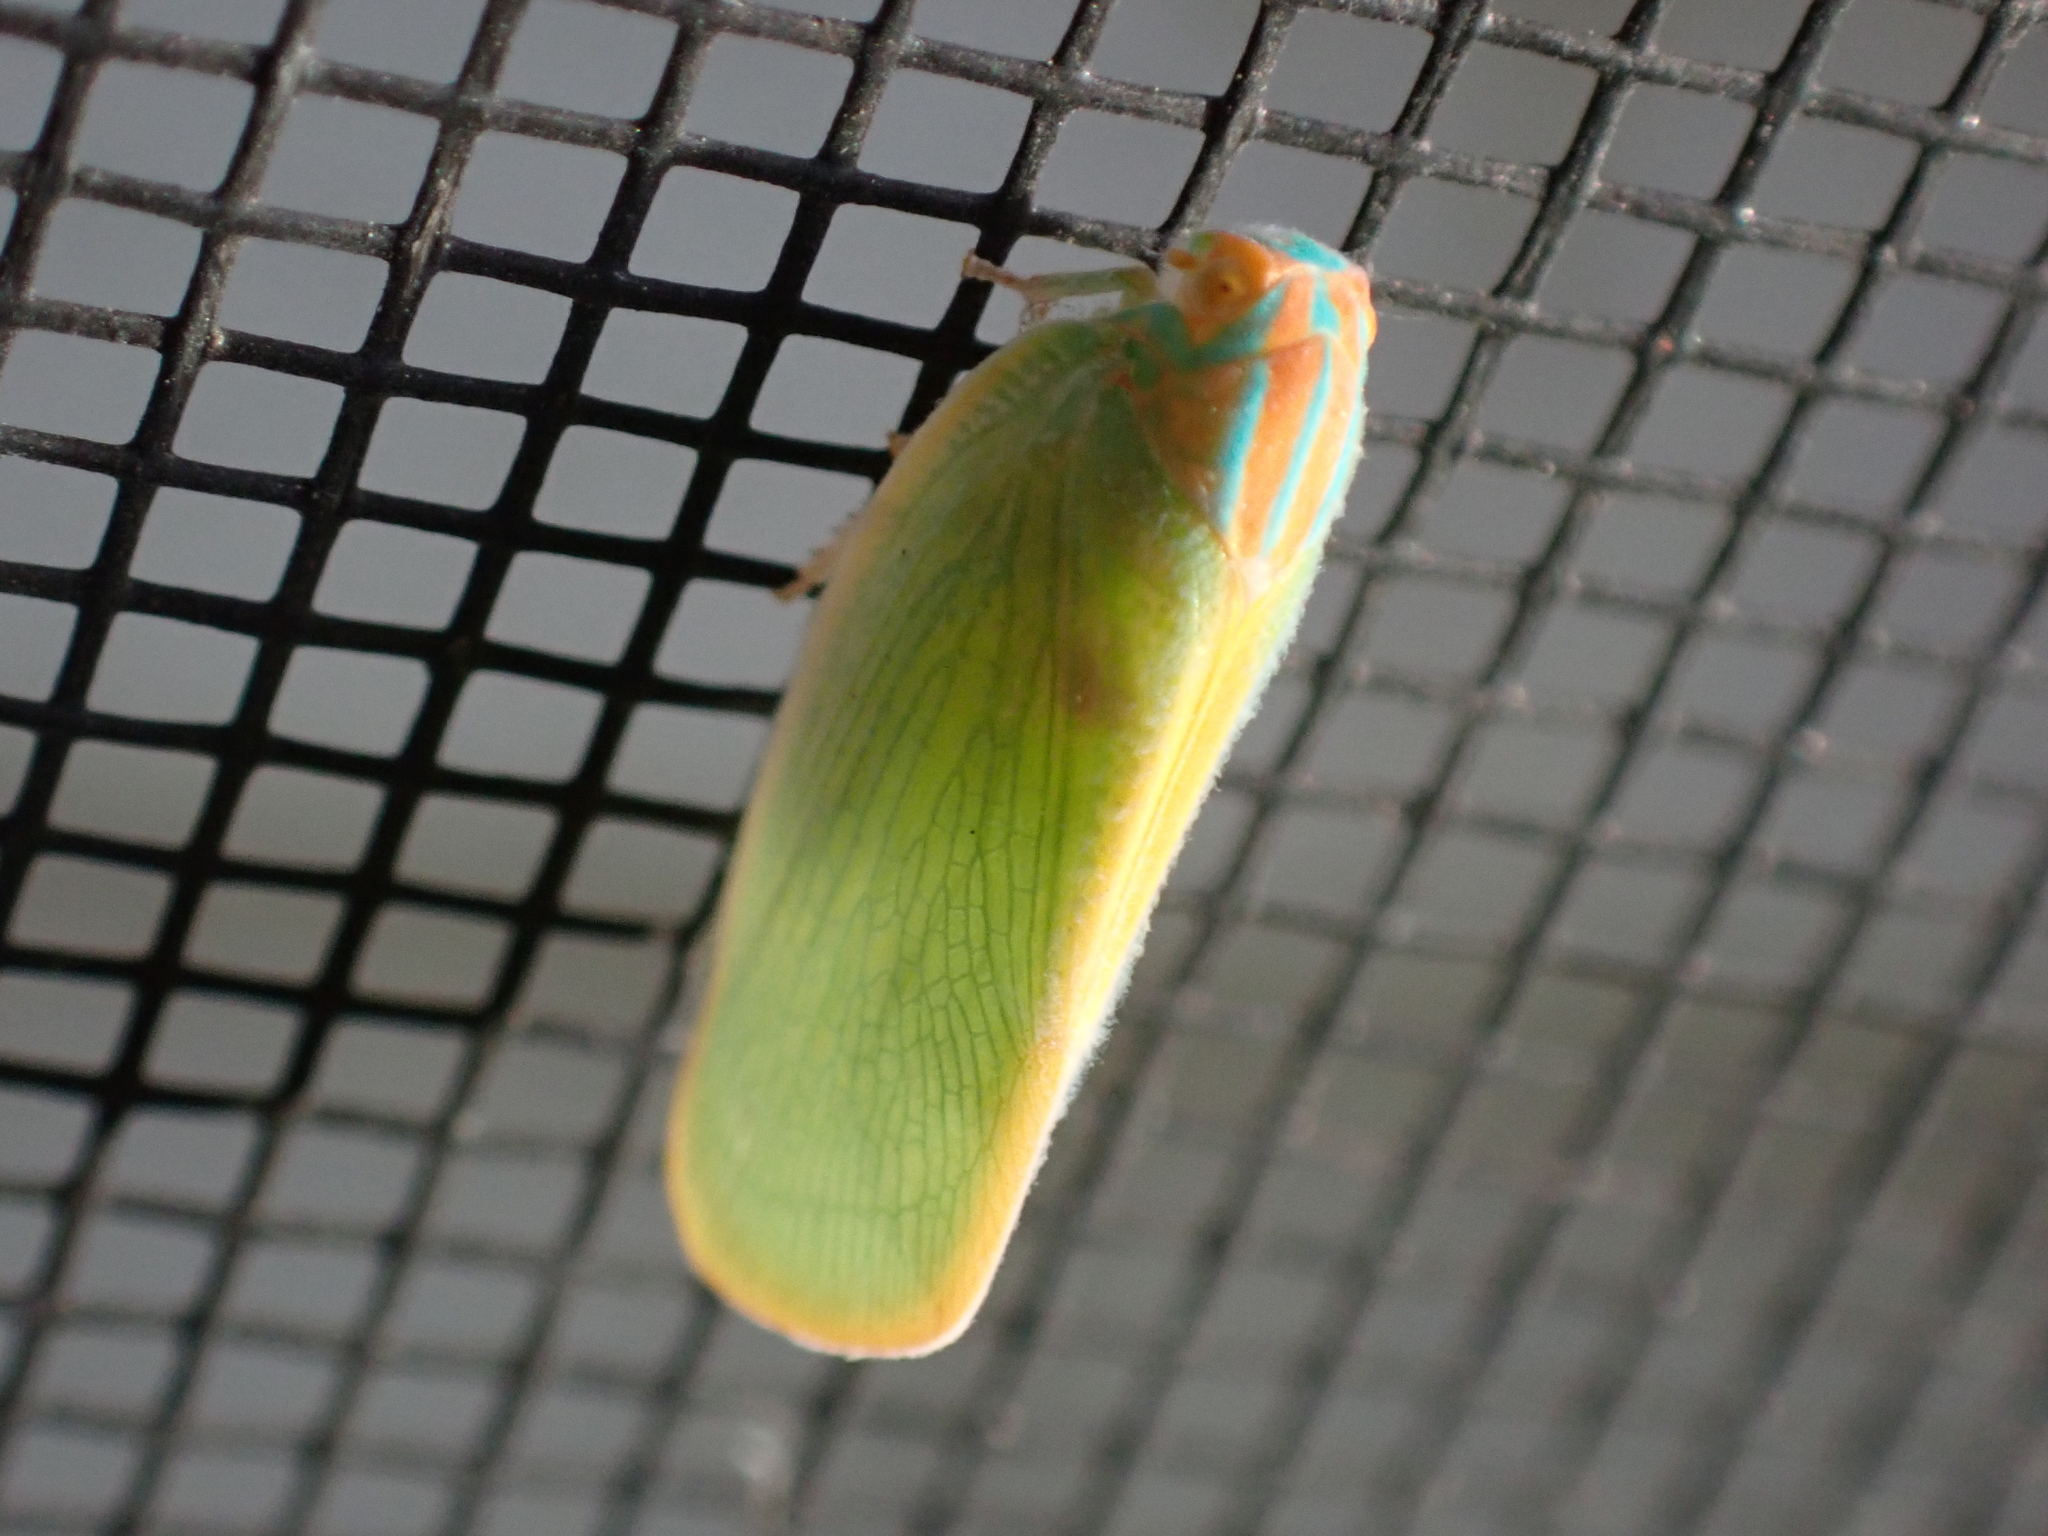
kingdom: Animalia
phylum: Arthropoda
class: Insecta
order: Hemiptera
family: Flatidae
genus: Ormenaria
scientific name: Ormenaria rufifascia
